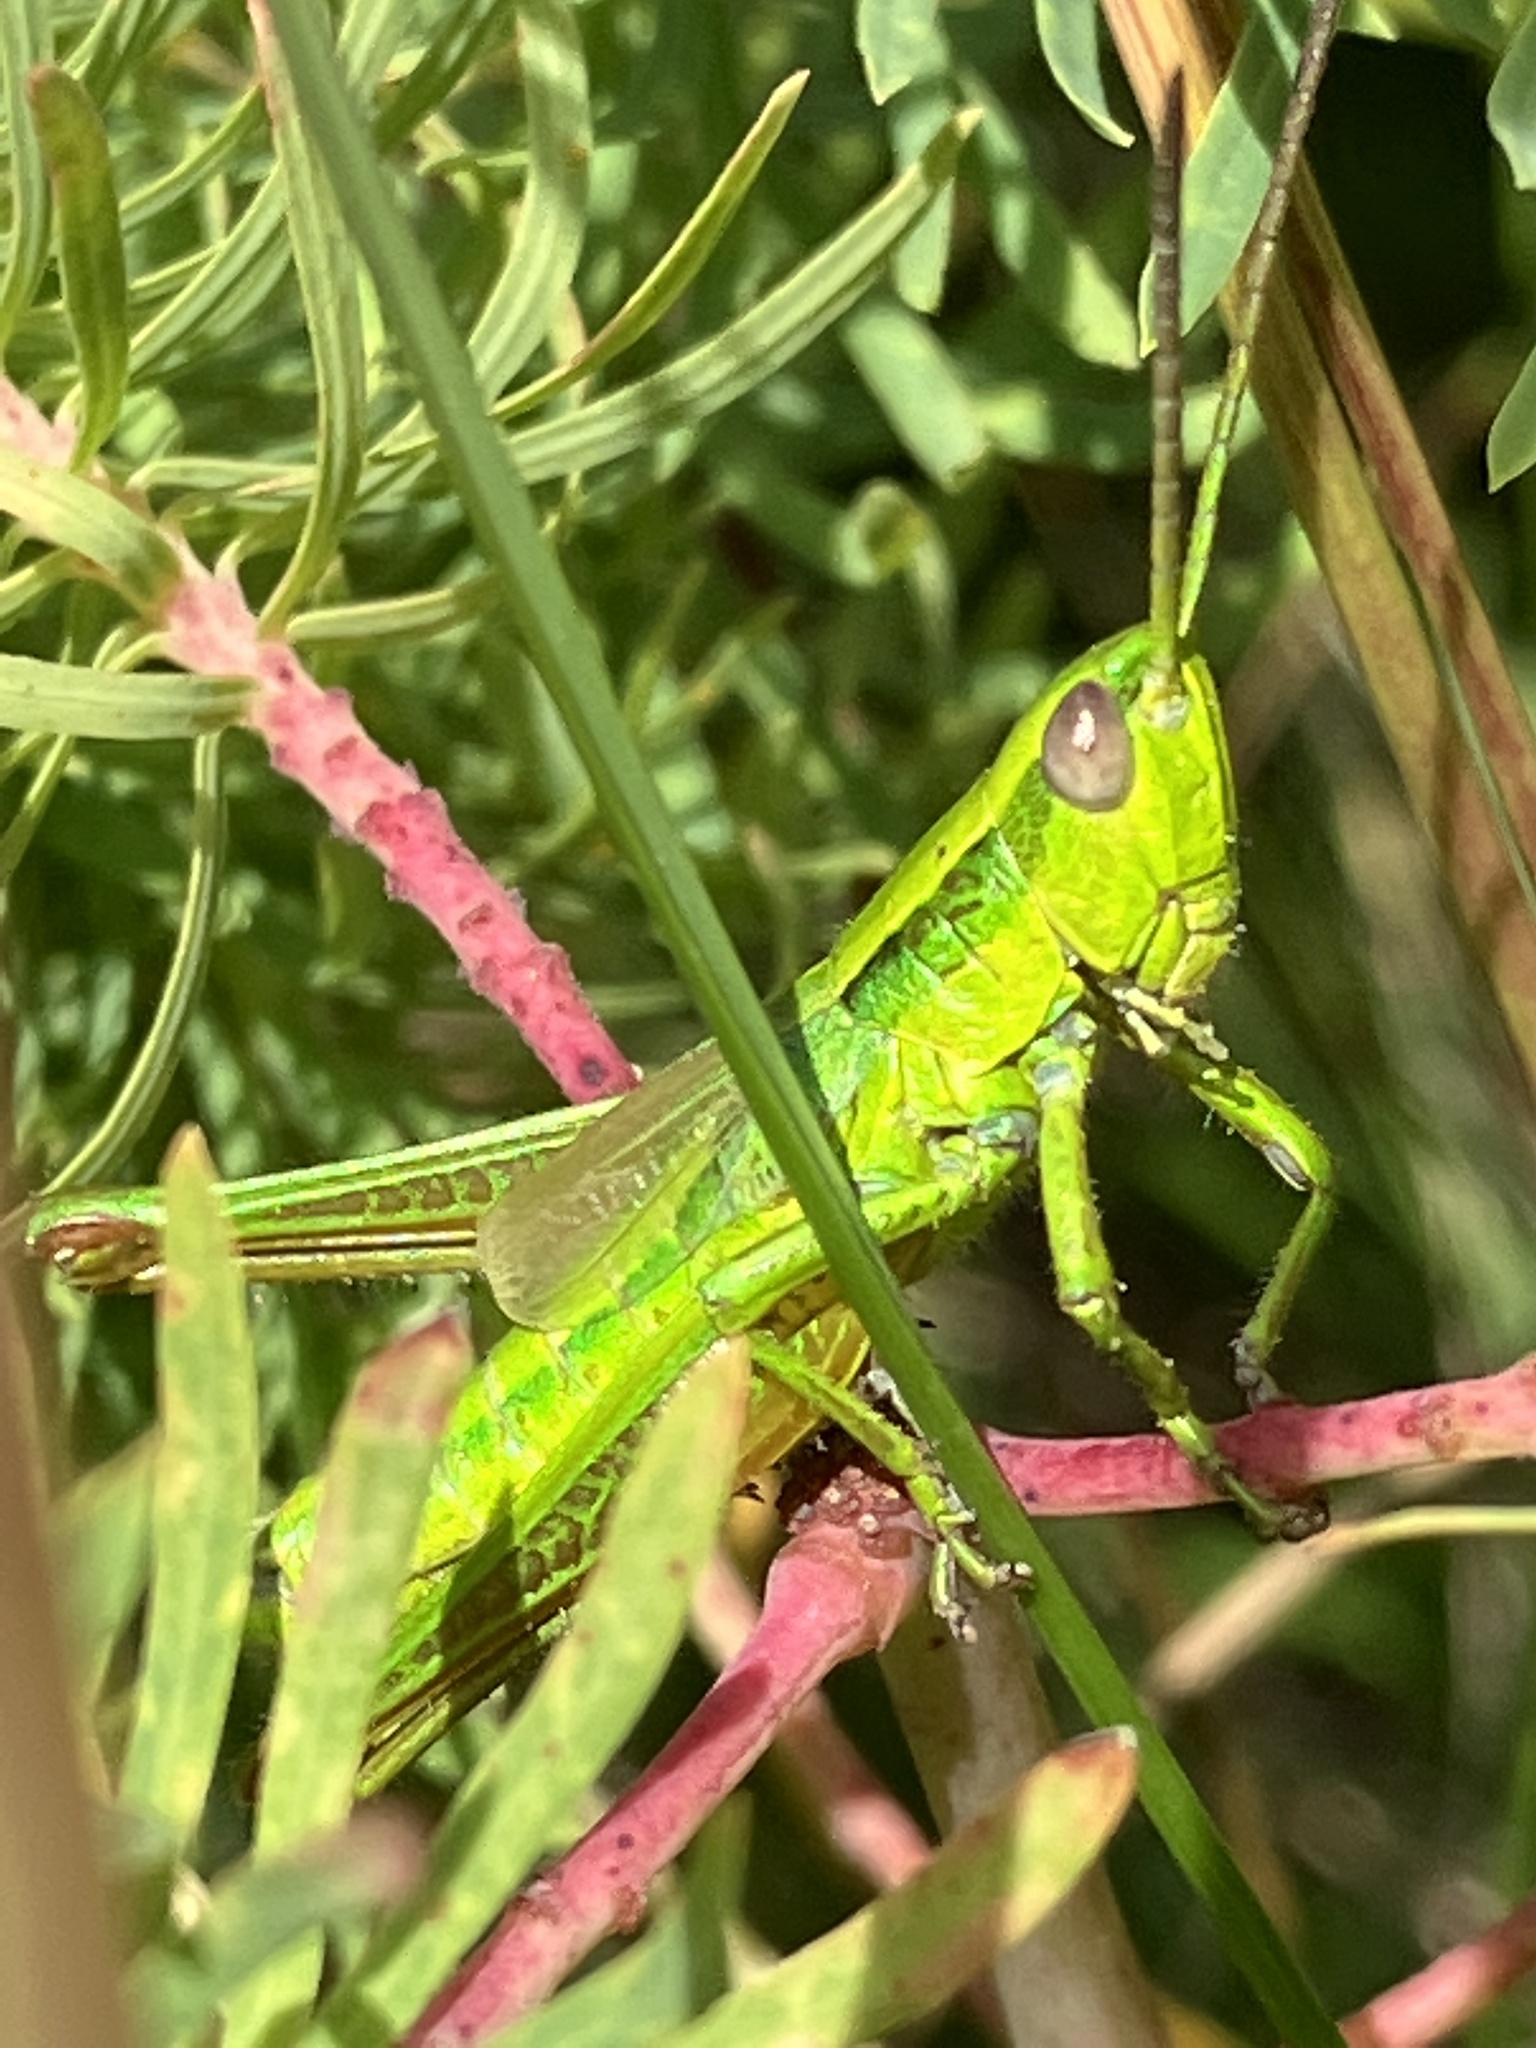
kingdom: Animalia
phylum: Arthropoda
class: Insecta
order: Orthoptera
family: Acrididae
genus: Euthystira
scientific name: Euthystira brachyptera
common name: Small gold grasshopper
